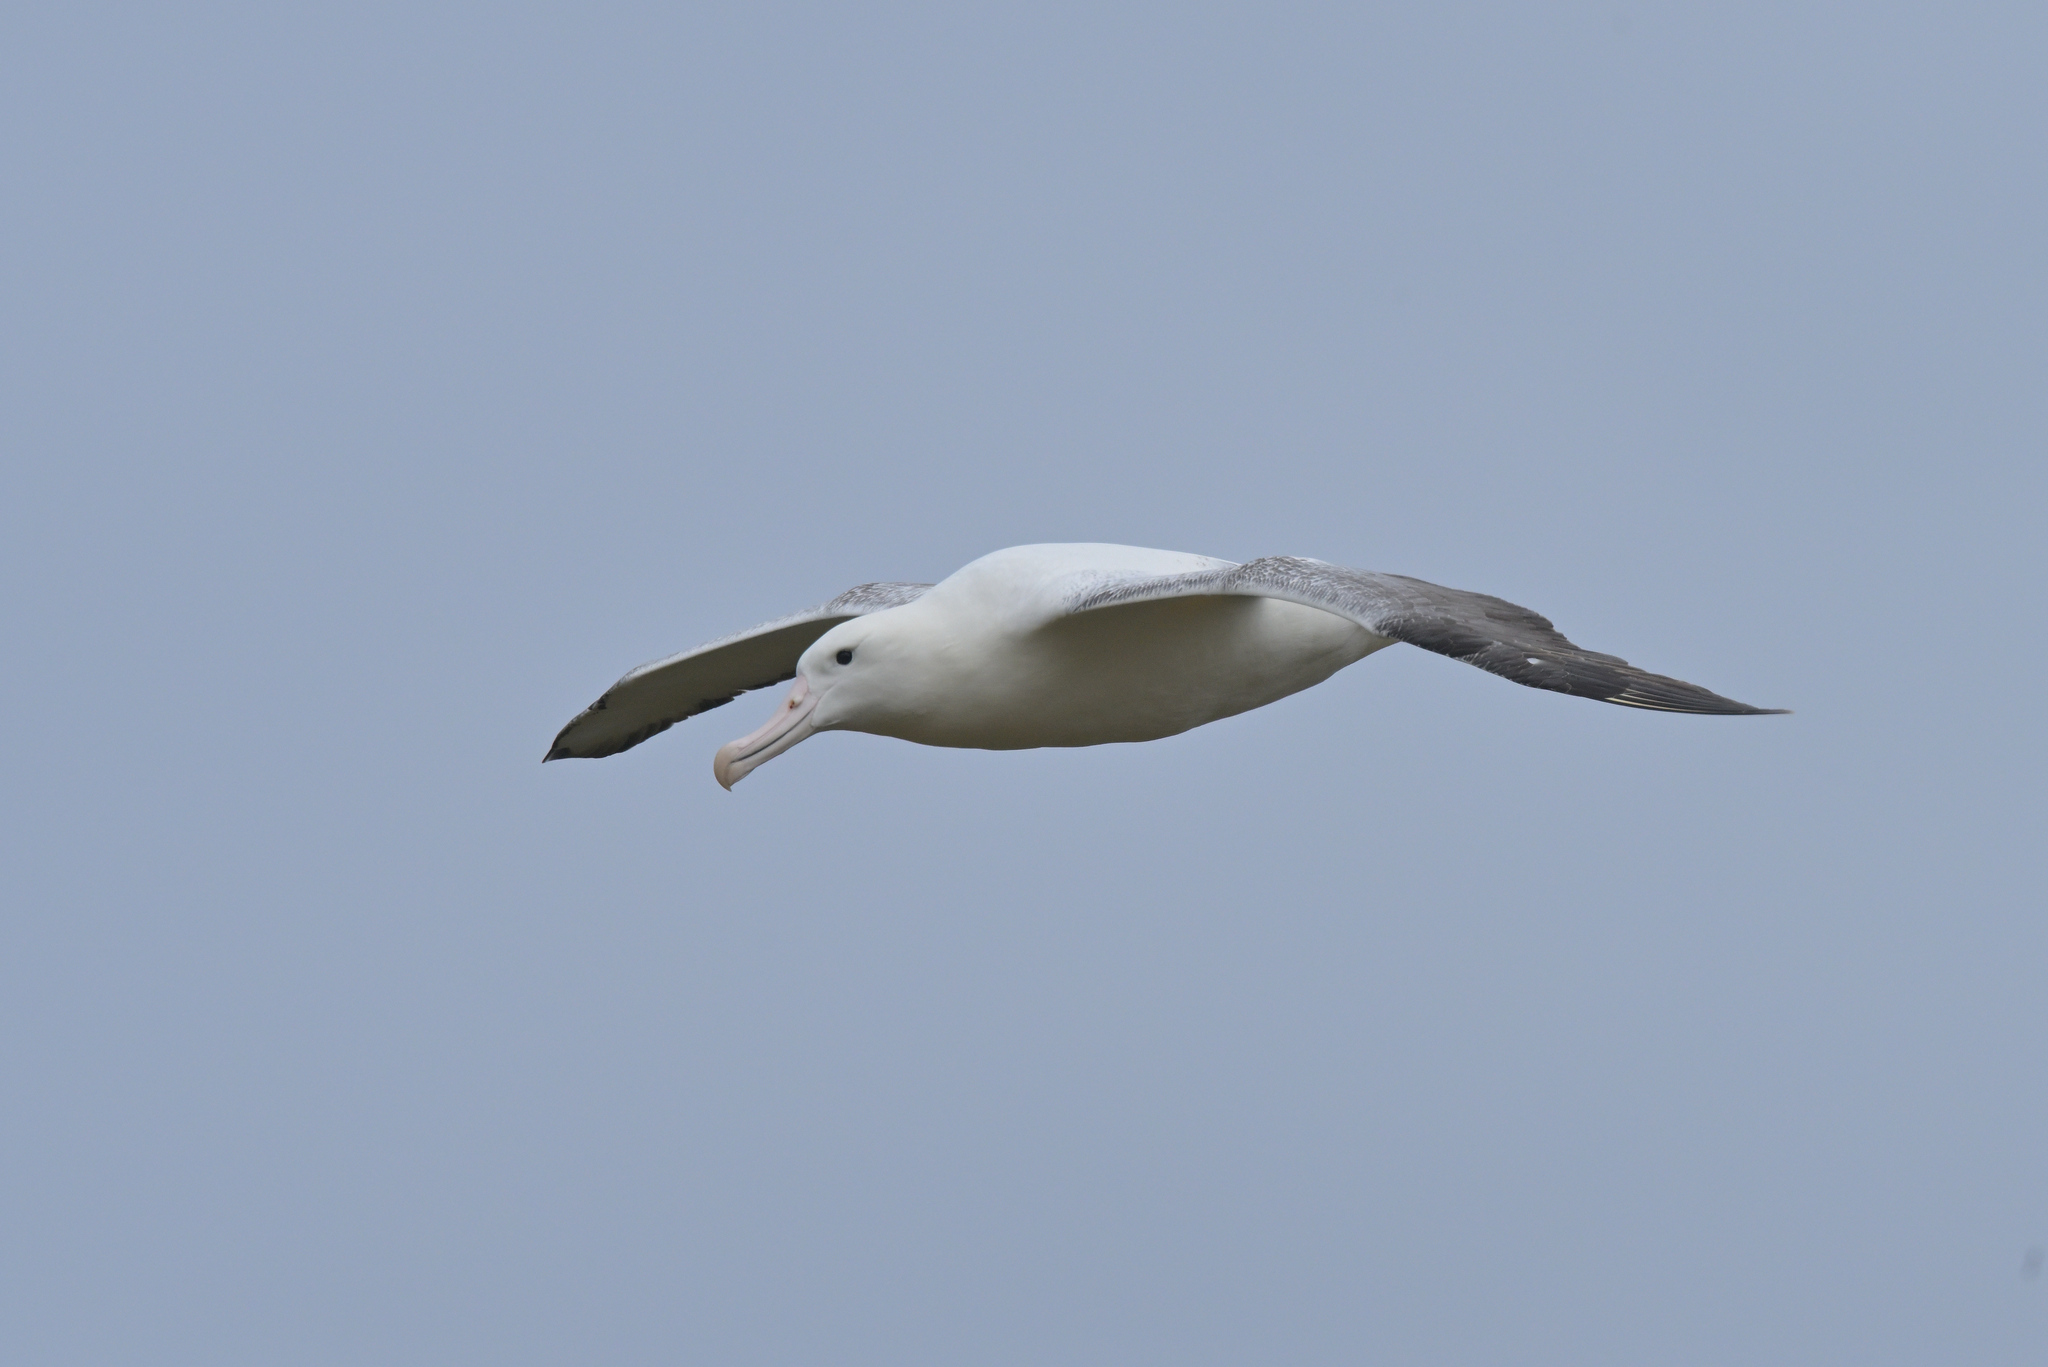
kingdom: Animalia
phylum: Chordata
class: Aves
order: Procellariiformes
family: Diomedeidae
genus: Diomedea
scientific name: Diomedea epomophora
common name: Southern royal albatross
